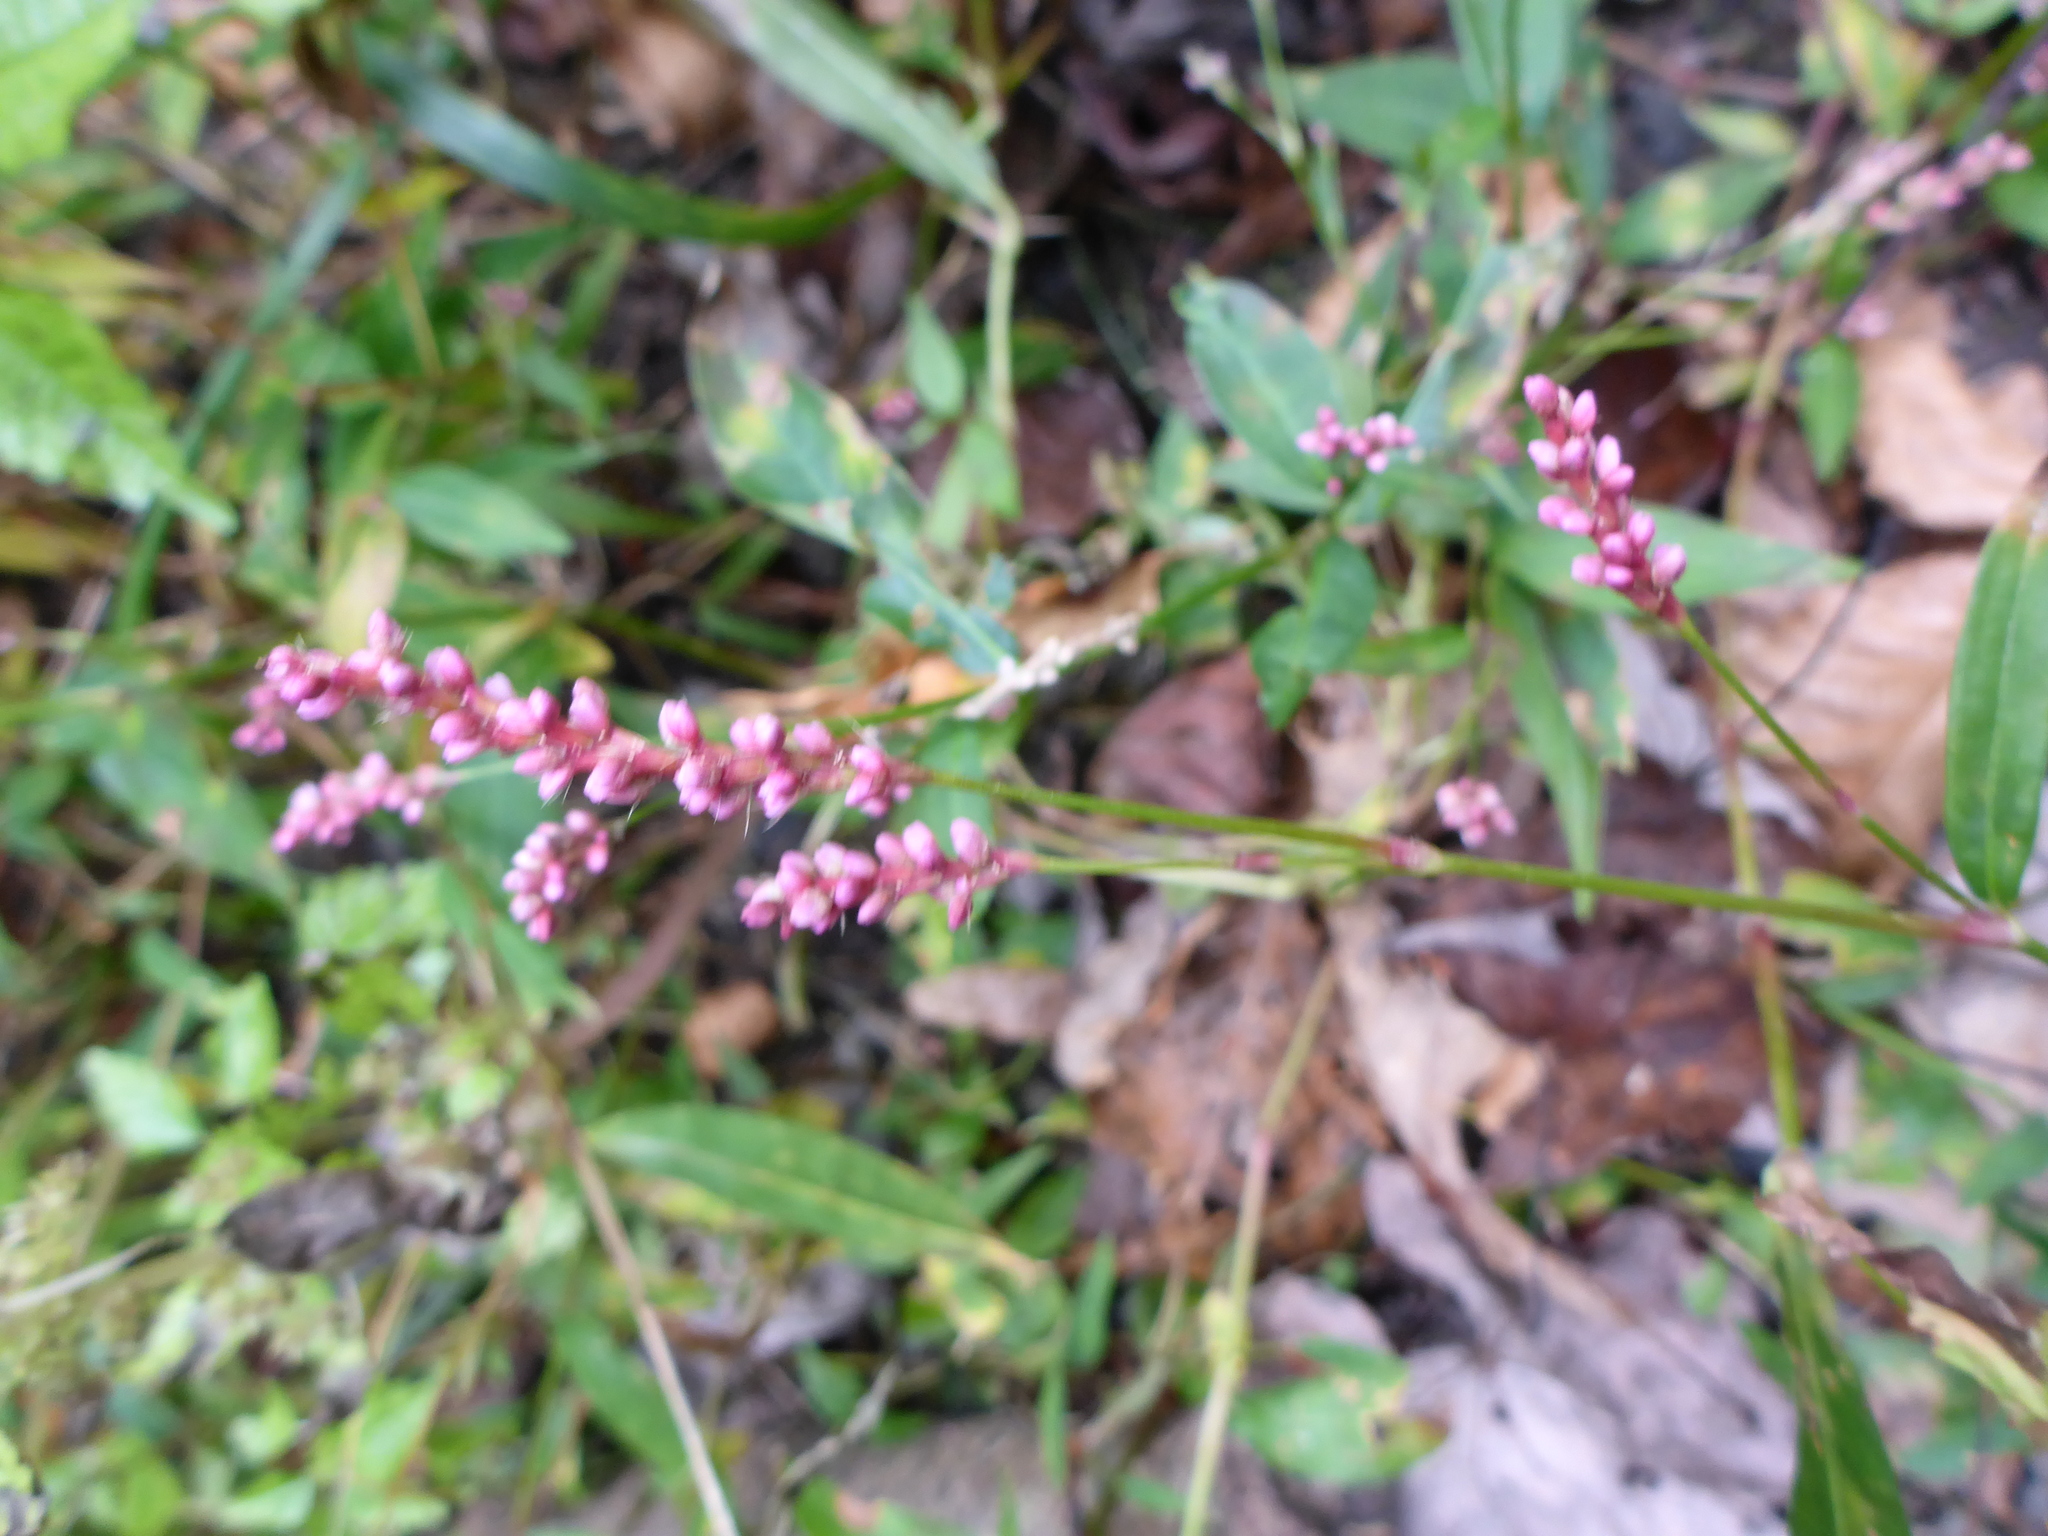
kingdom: Plantae
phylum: Tracheophyta
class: Magnoliopsida
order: Caryophyllales
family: Polygonaceae
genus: Persicaria
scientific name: Persicaria longiseta
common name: Bristly lady's-thumb
